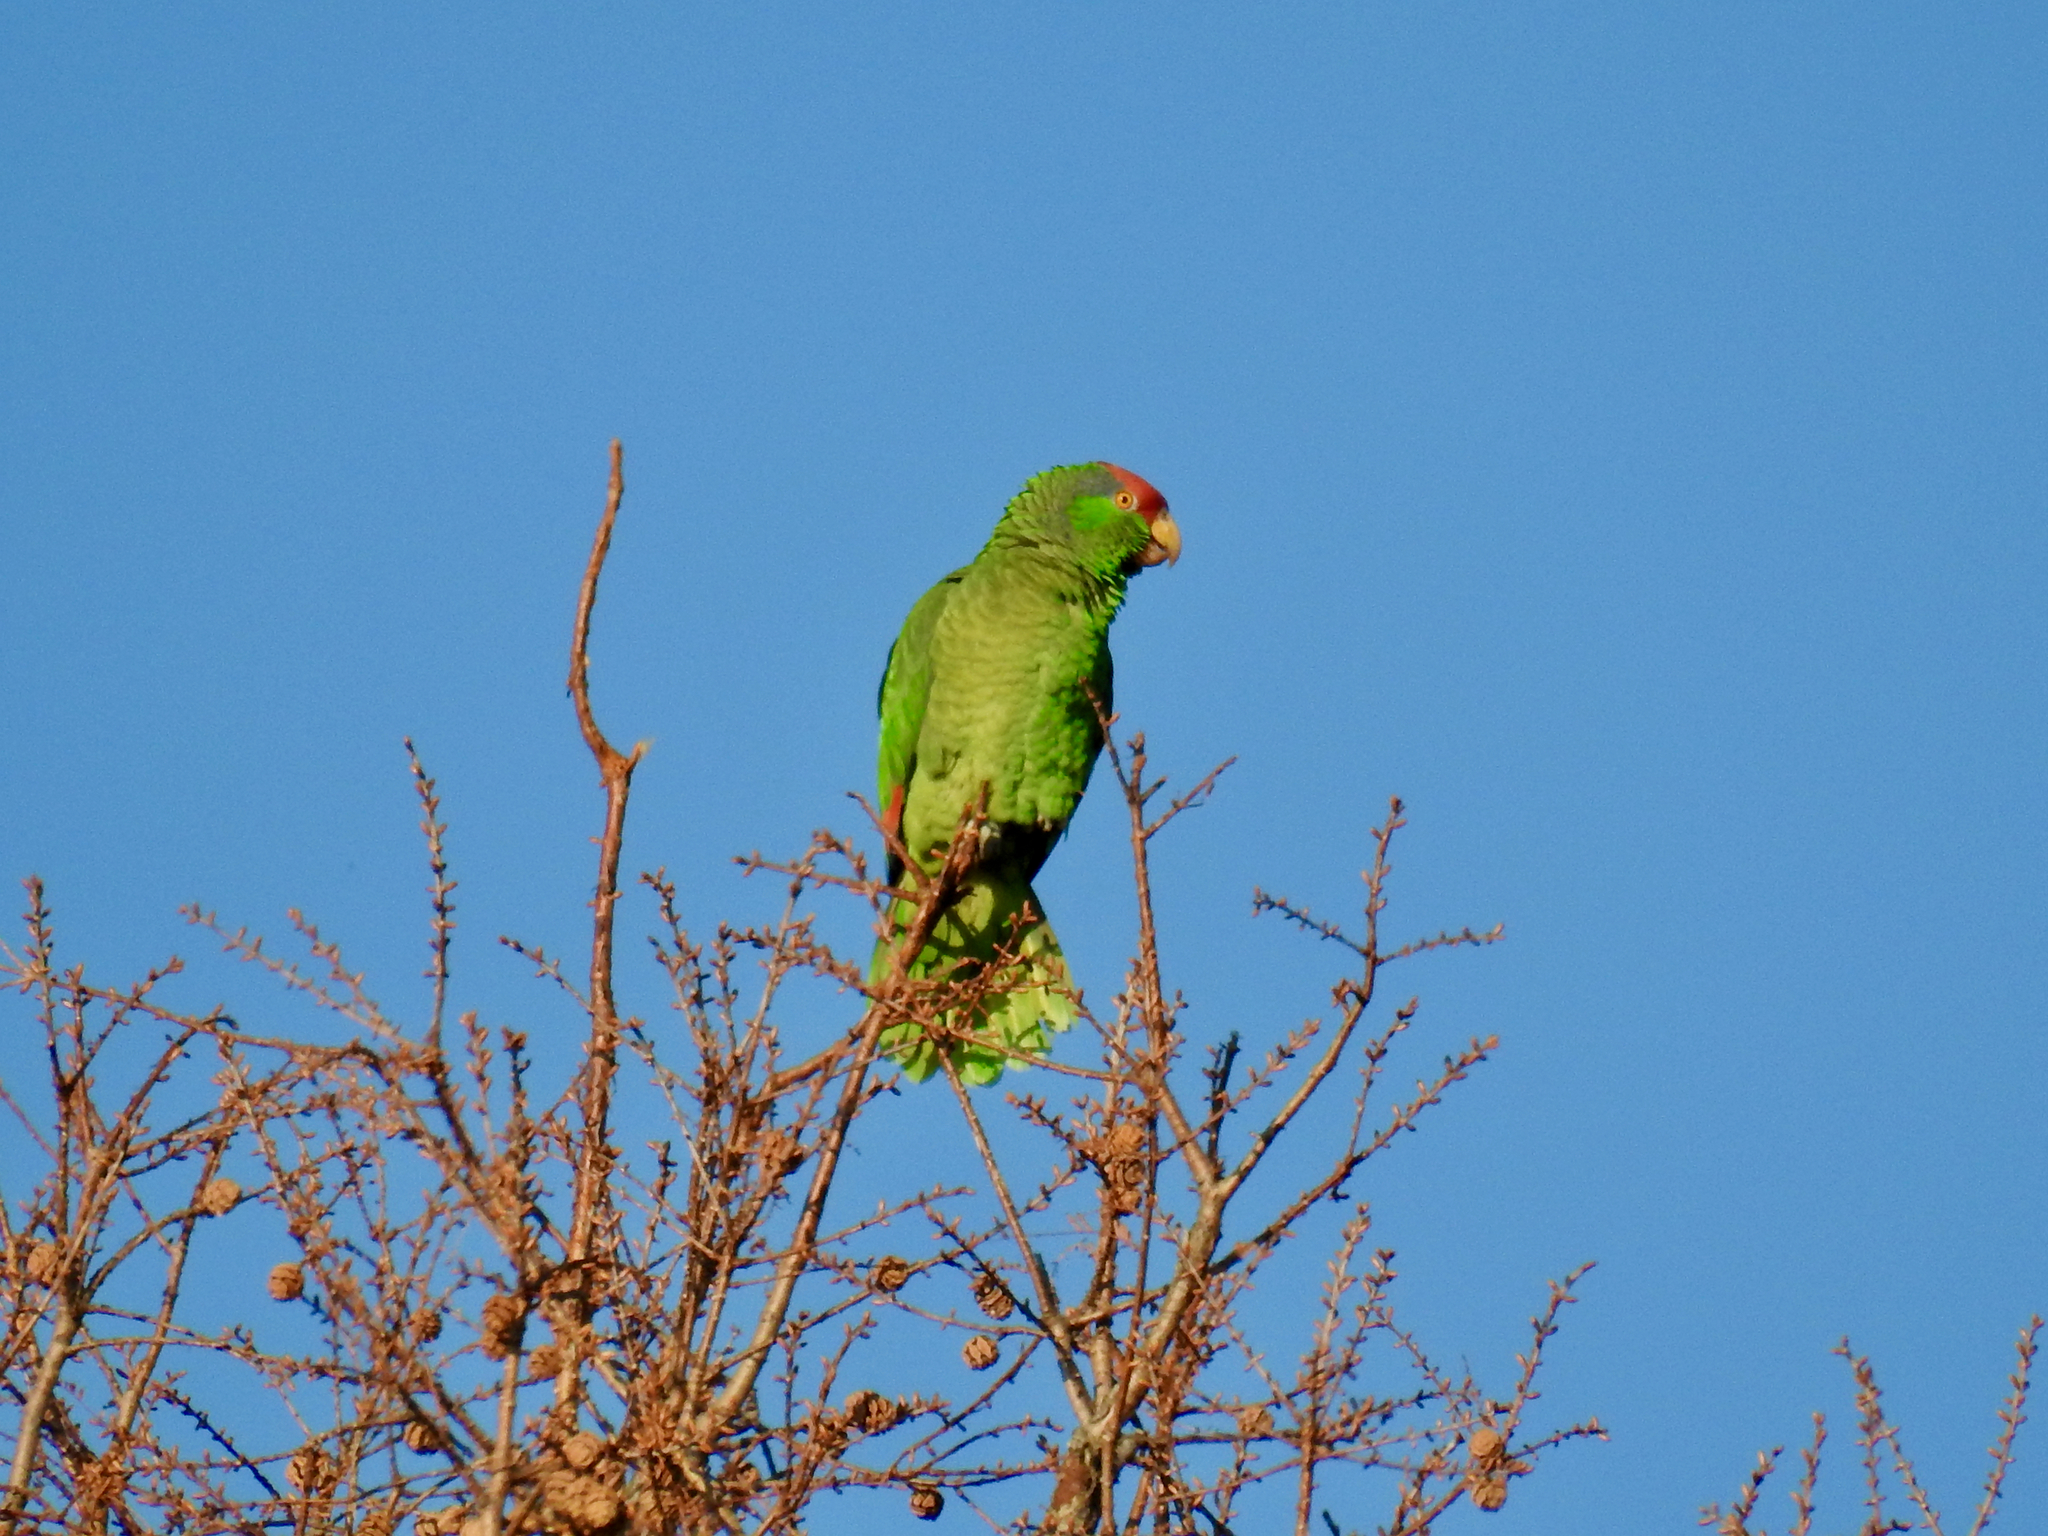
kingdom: Animalia
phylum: Chordata
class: Aves
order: Psittaciformes
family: Psittacidae
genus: Amazona
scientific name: Amazona viridigenalis
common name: Red-crowned amazon
